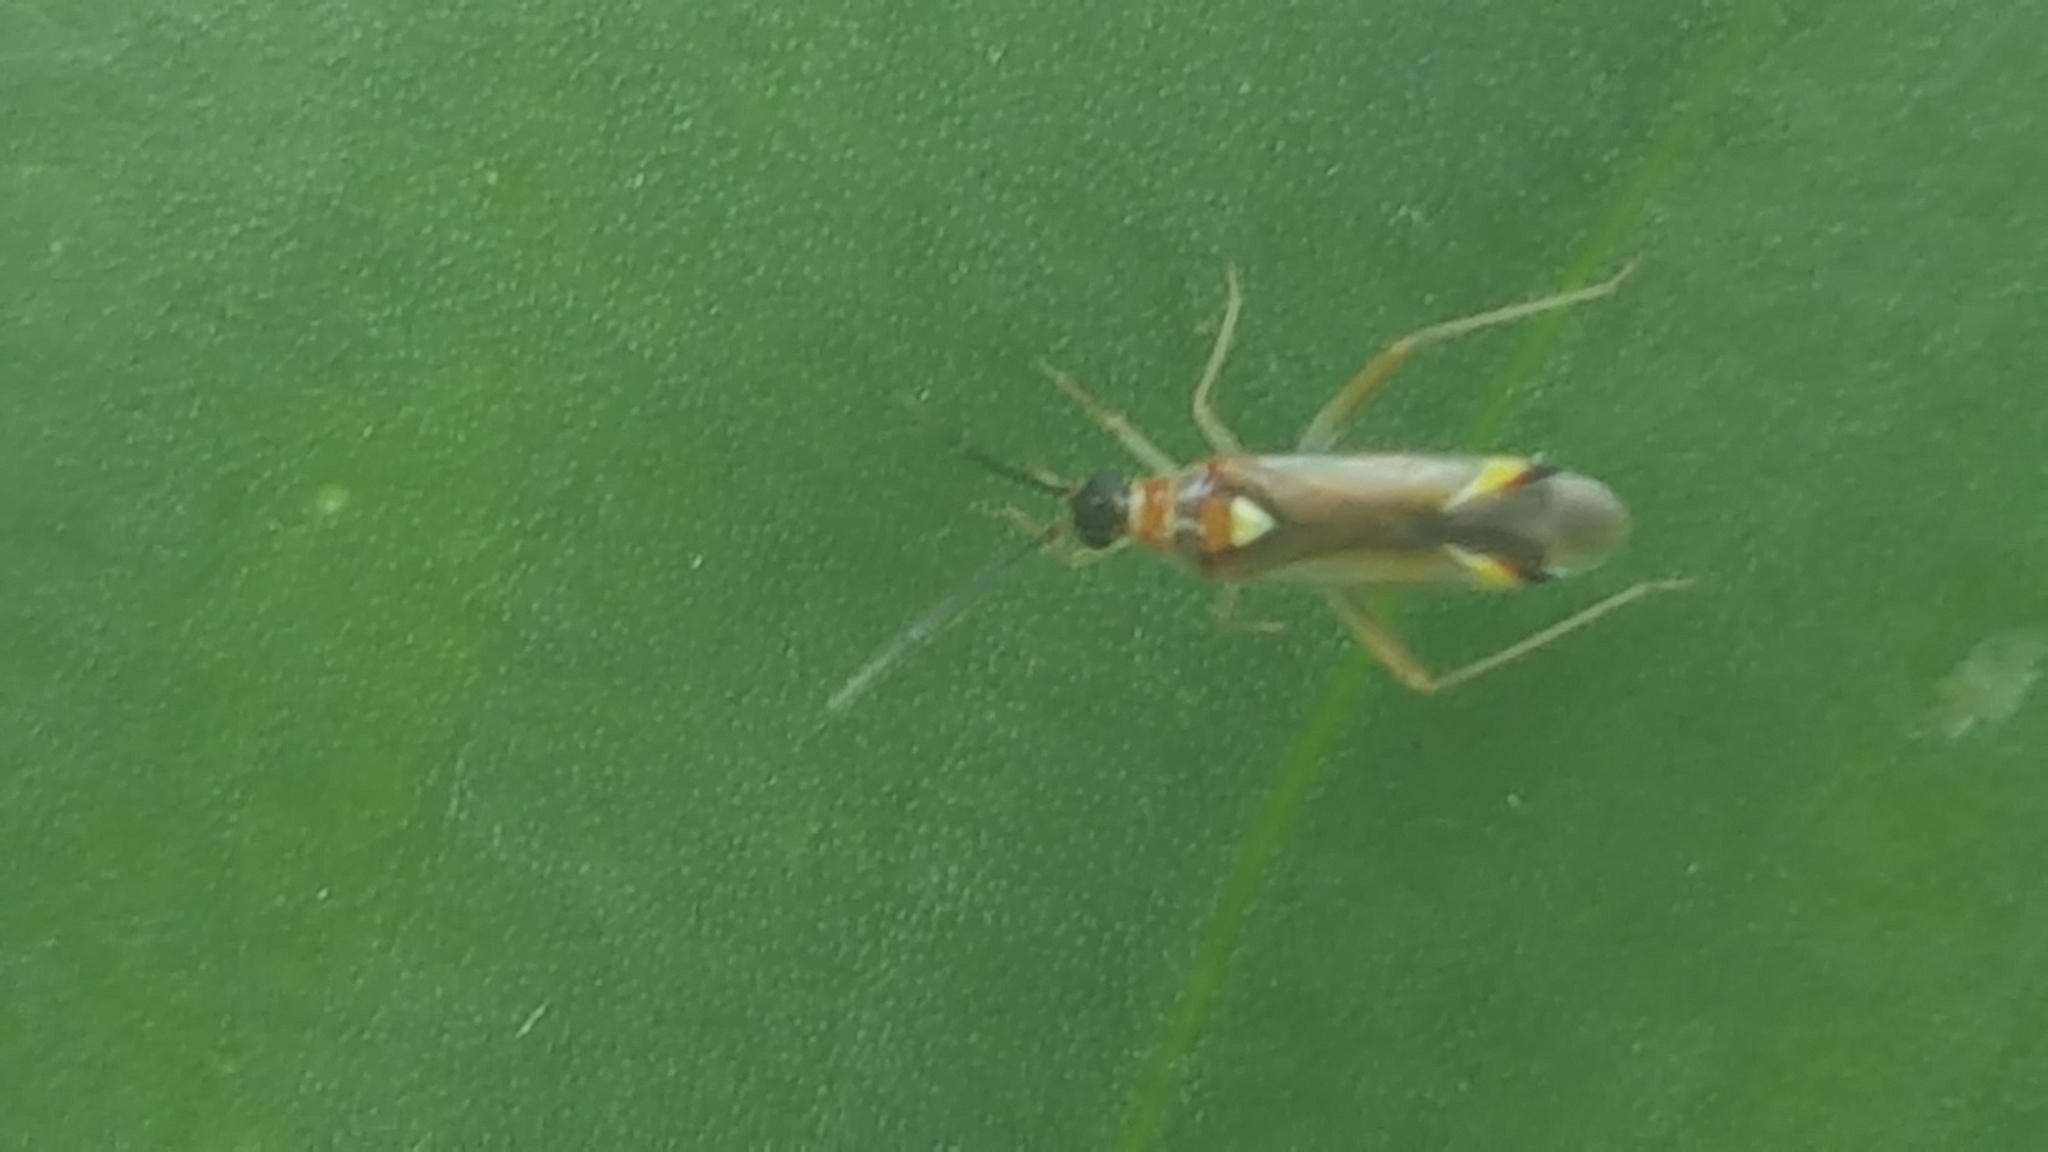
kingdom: Animalia
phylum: Arthropoda
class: Insecta
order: Hemiptera
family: Miridae
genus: Campyloneura
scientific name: Campyloneura virgula
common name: Predatory bug
